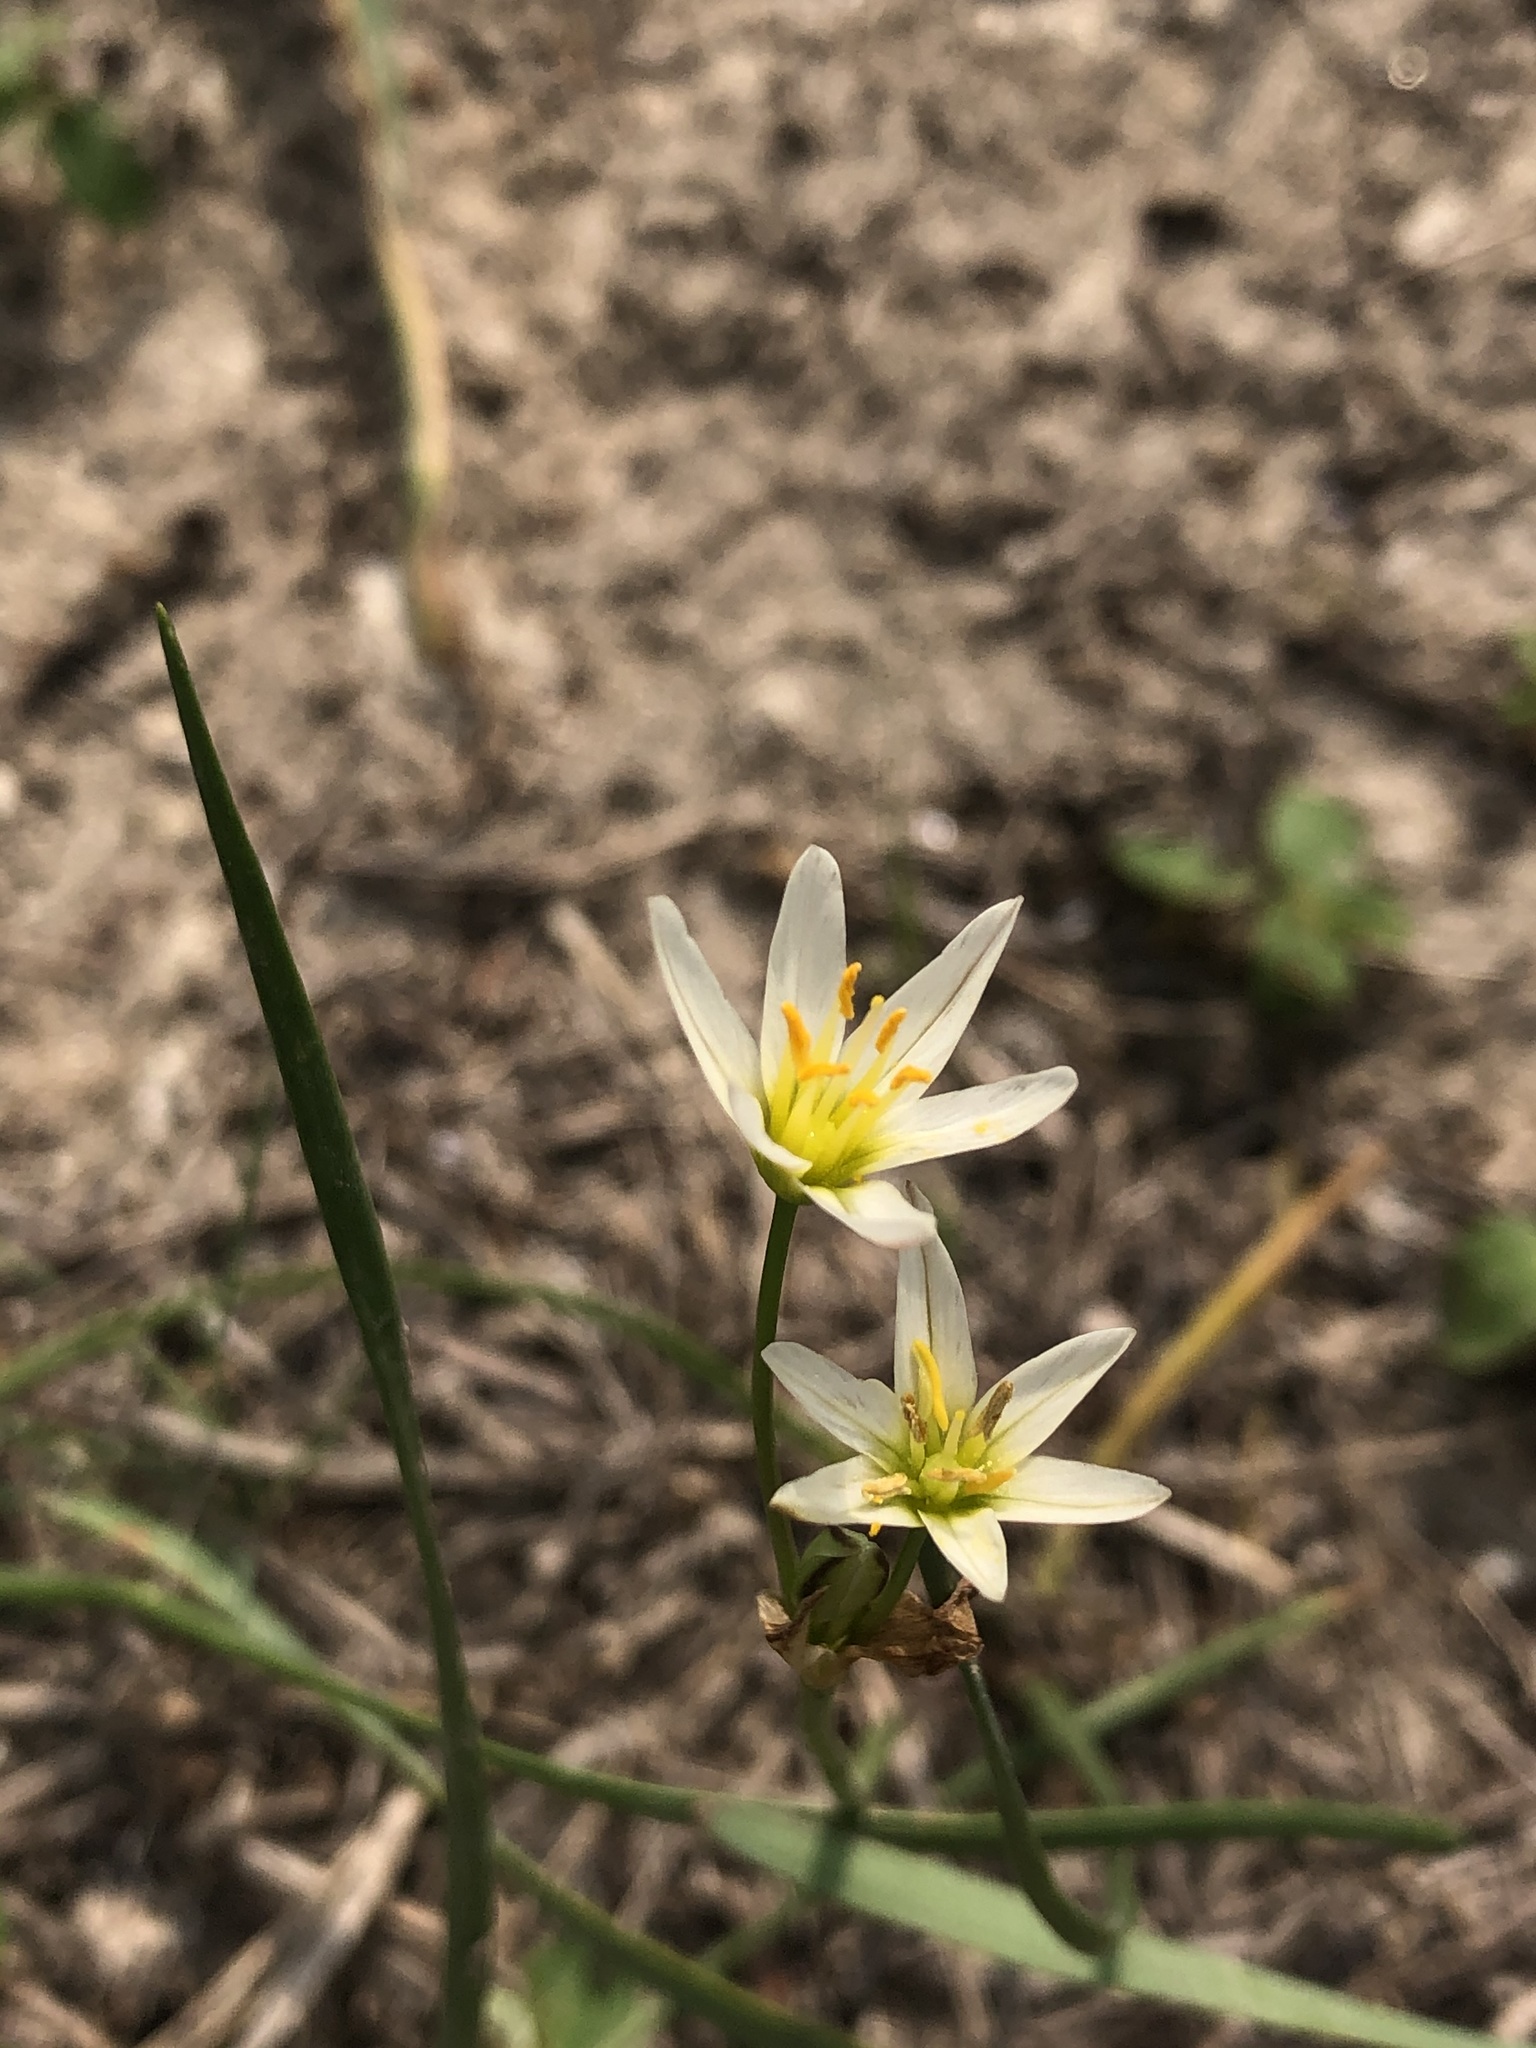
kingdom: Plantae
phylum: Tracheophyta
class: Liliopsida
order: Asparagales
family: Amaryllidaceae
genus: Nothoscordum
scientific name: Nothoscordum bivalve
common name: Crow-poison
